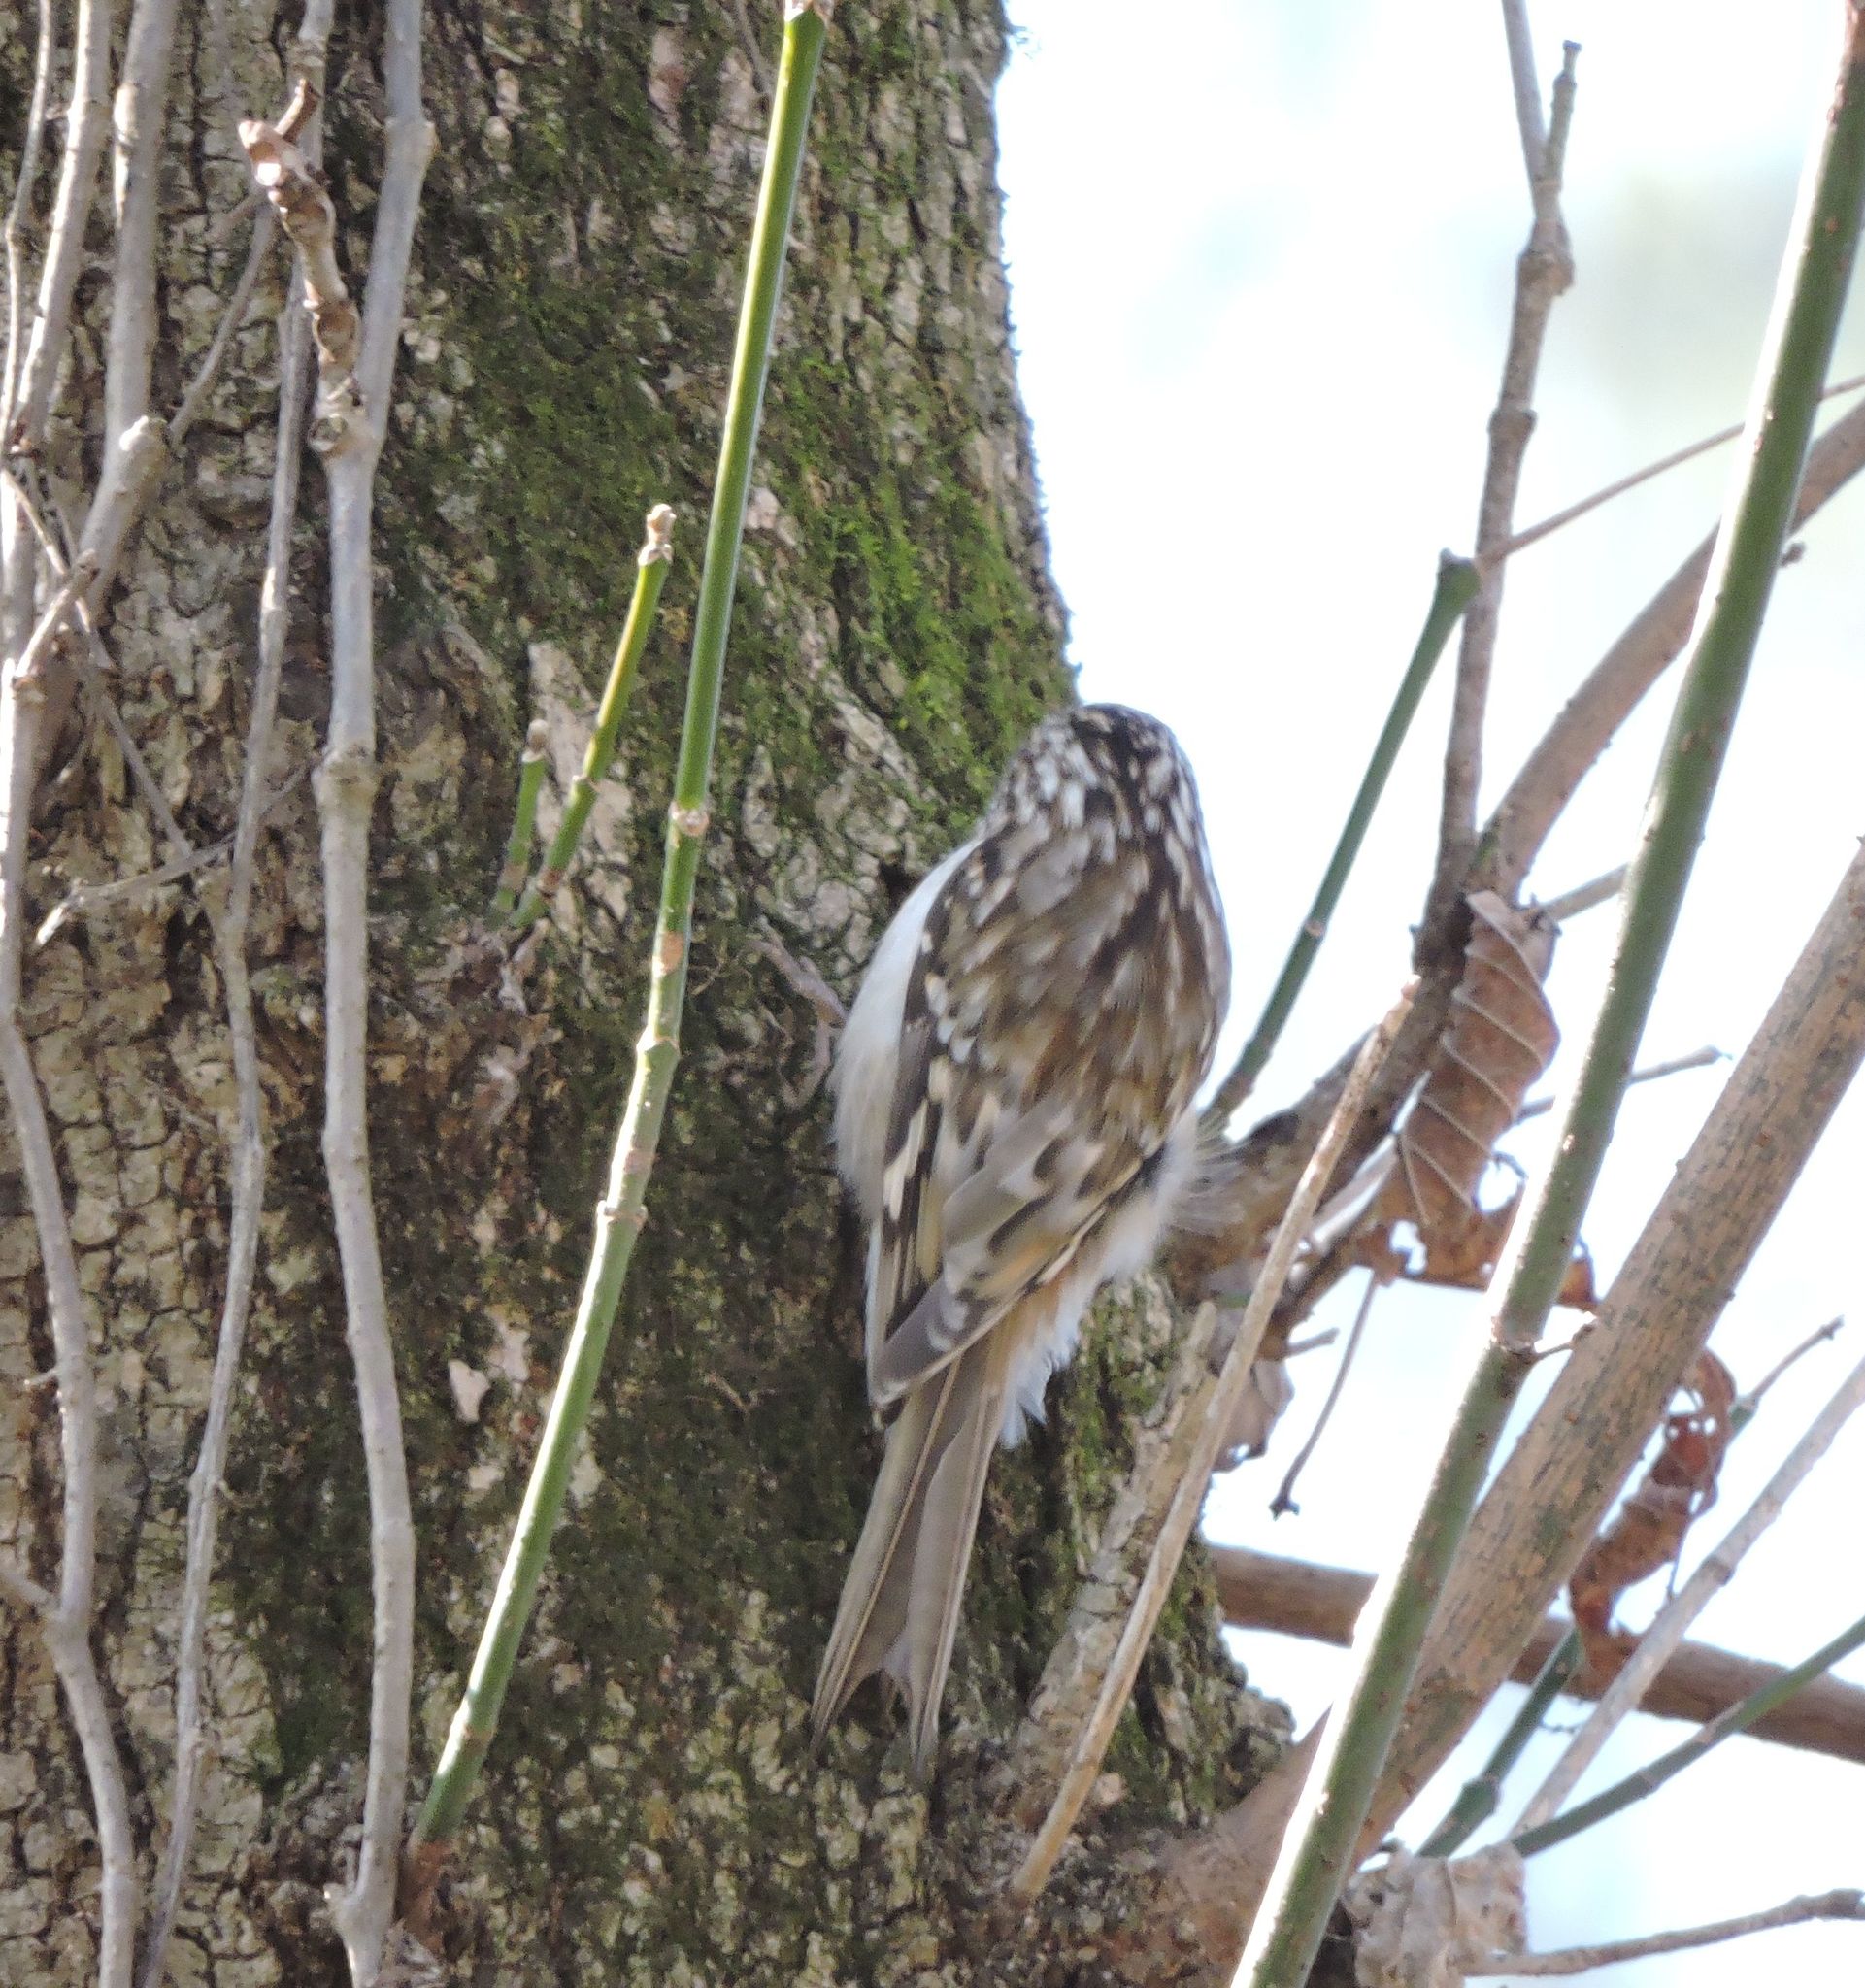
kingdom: Animalia
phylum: Chordata
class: Aves
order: Passeriformes
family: Certhiidae
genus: Certhia
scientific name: Certhia americana
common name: Brown creeper
